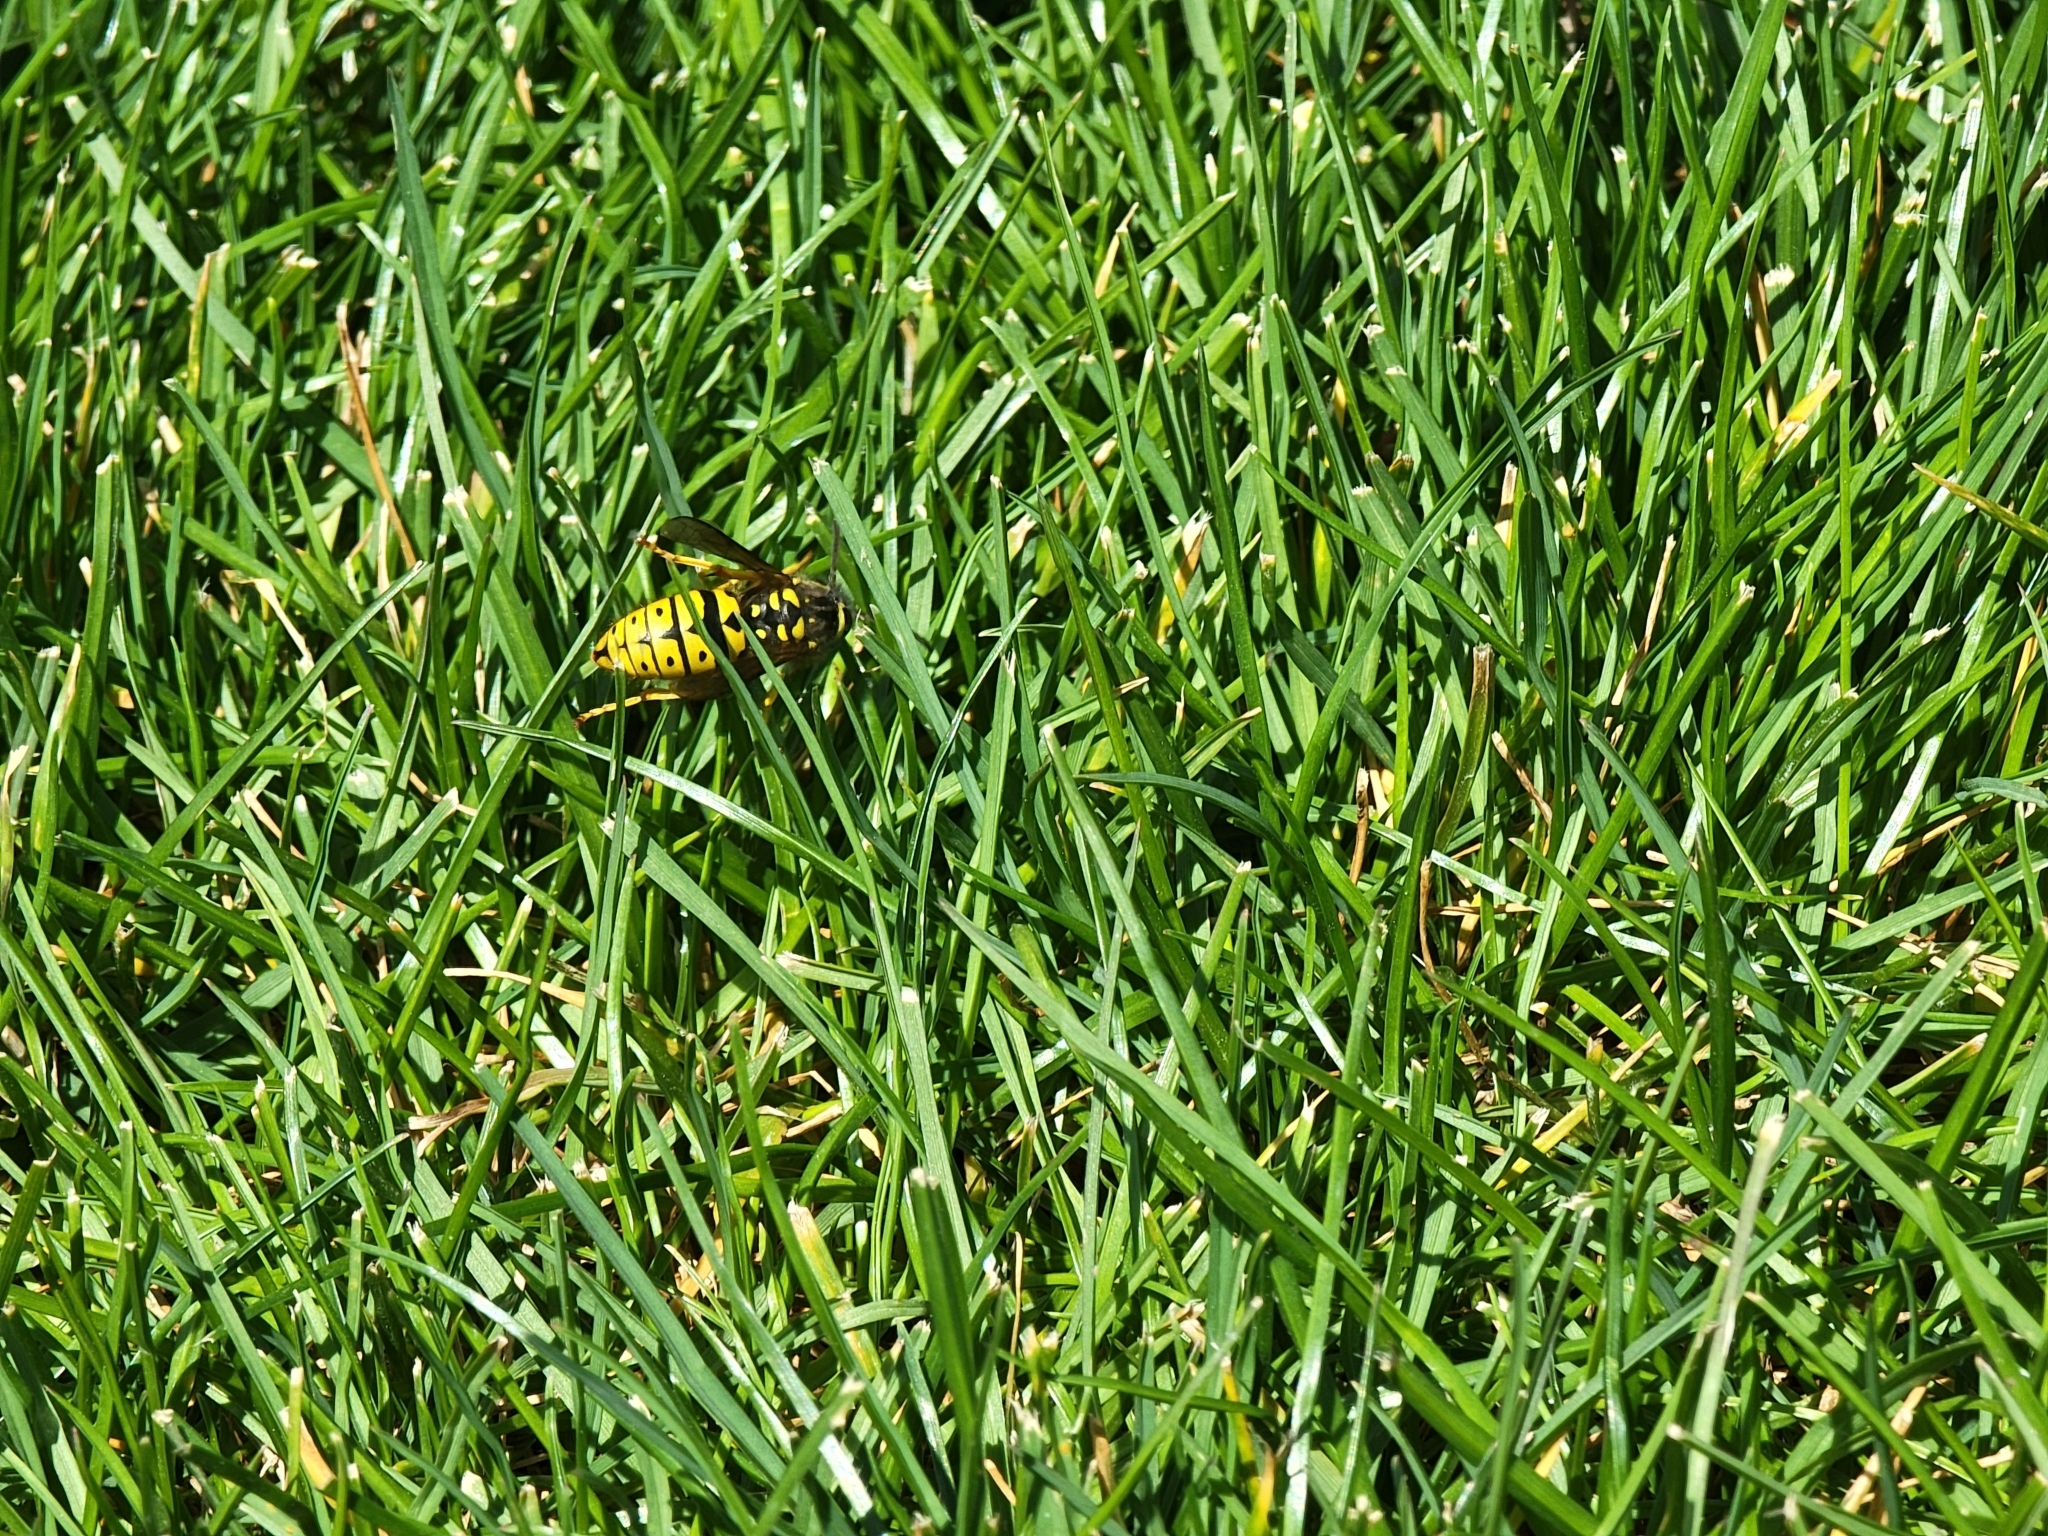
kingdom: Animalia
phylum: Arthropoda
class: Insecta
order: Hymenoptera
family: Vespidae
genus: Vespula
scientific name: Vespula pensylvanica
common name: Western yellowjacket
